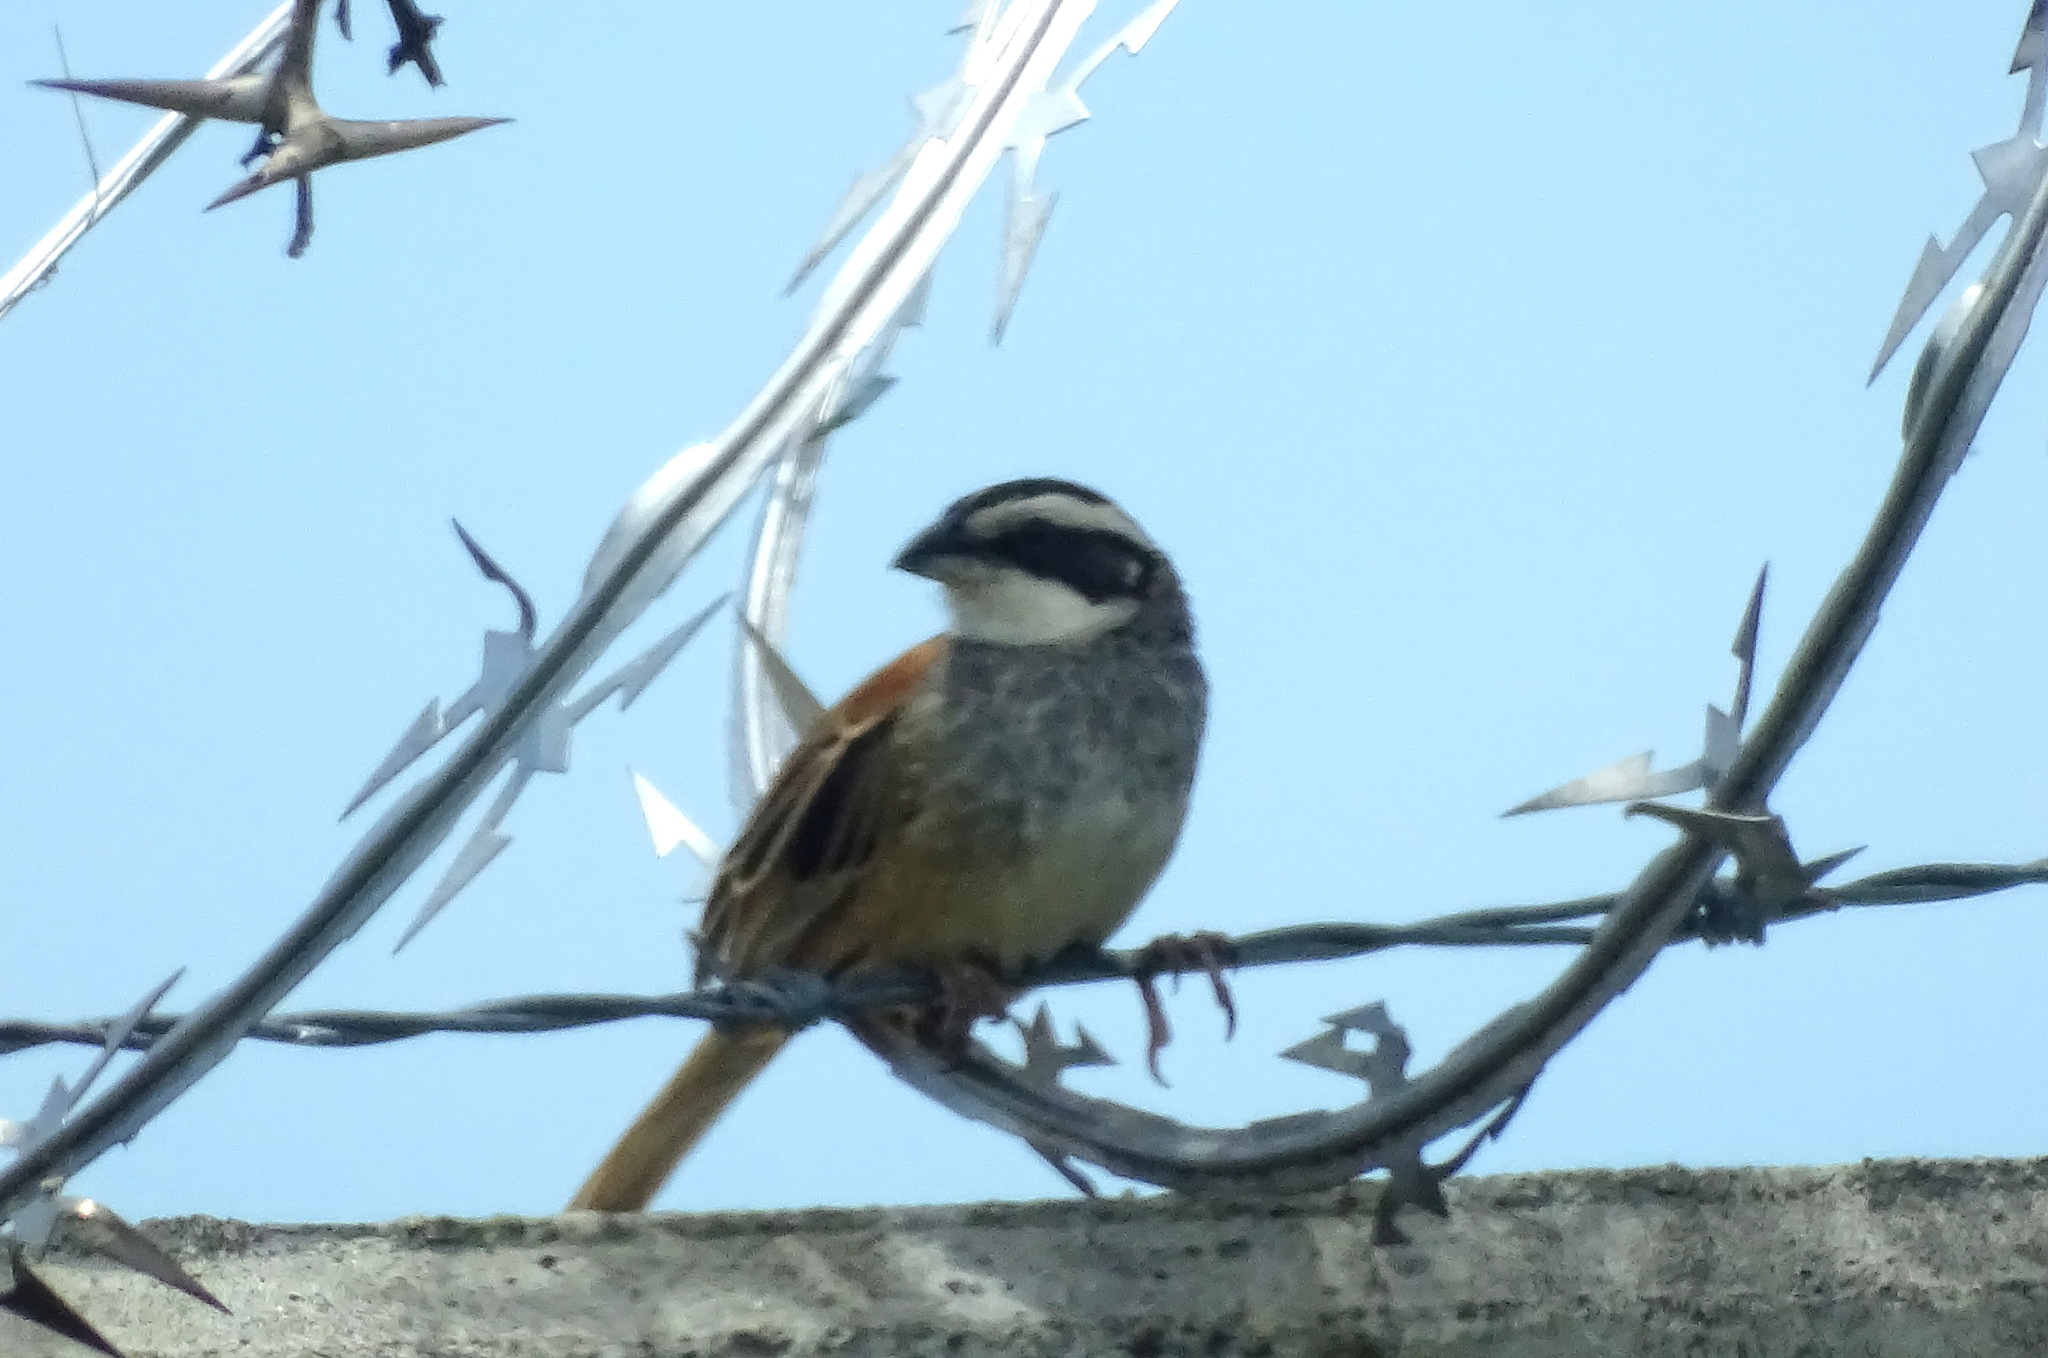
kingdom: Animalia
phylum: Chordata
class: Aves
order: Passeriformes
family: Passerellidae
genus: Peucaea
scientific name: Peucaea ruficauda
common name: Stripe-headed sparrow
